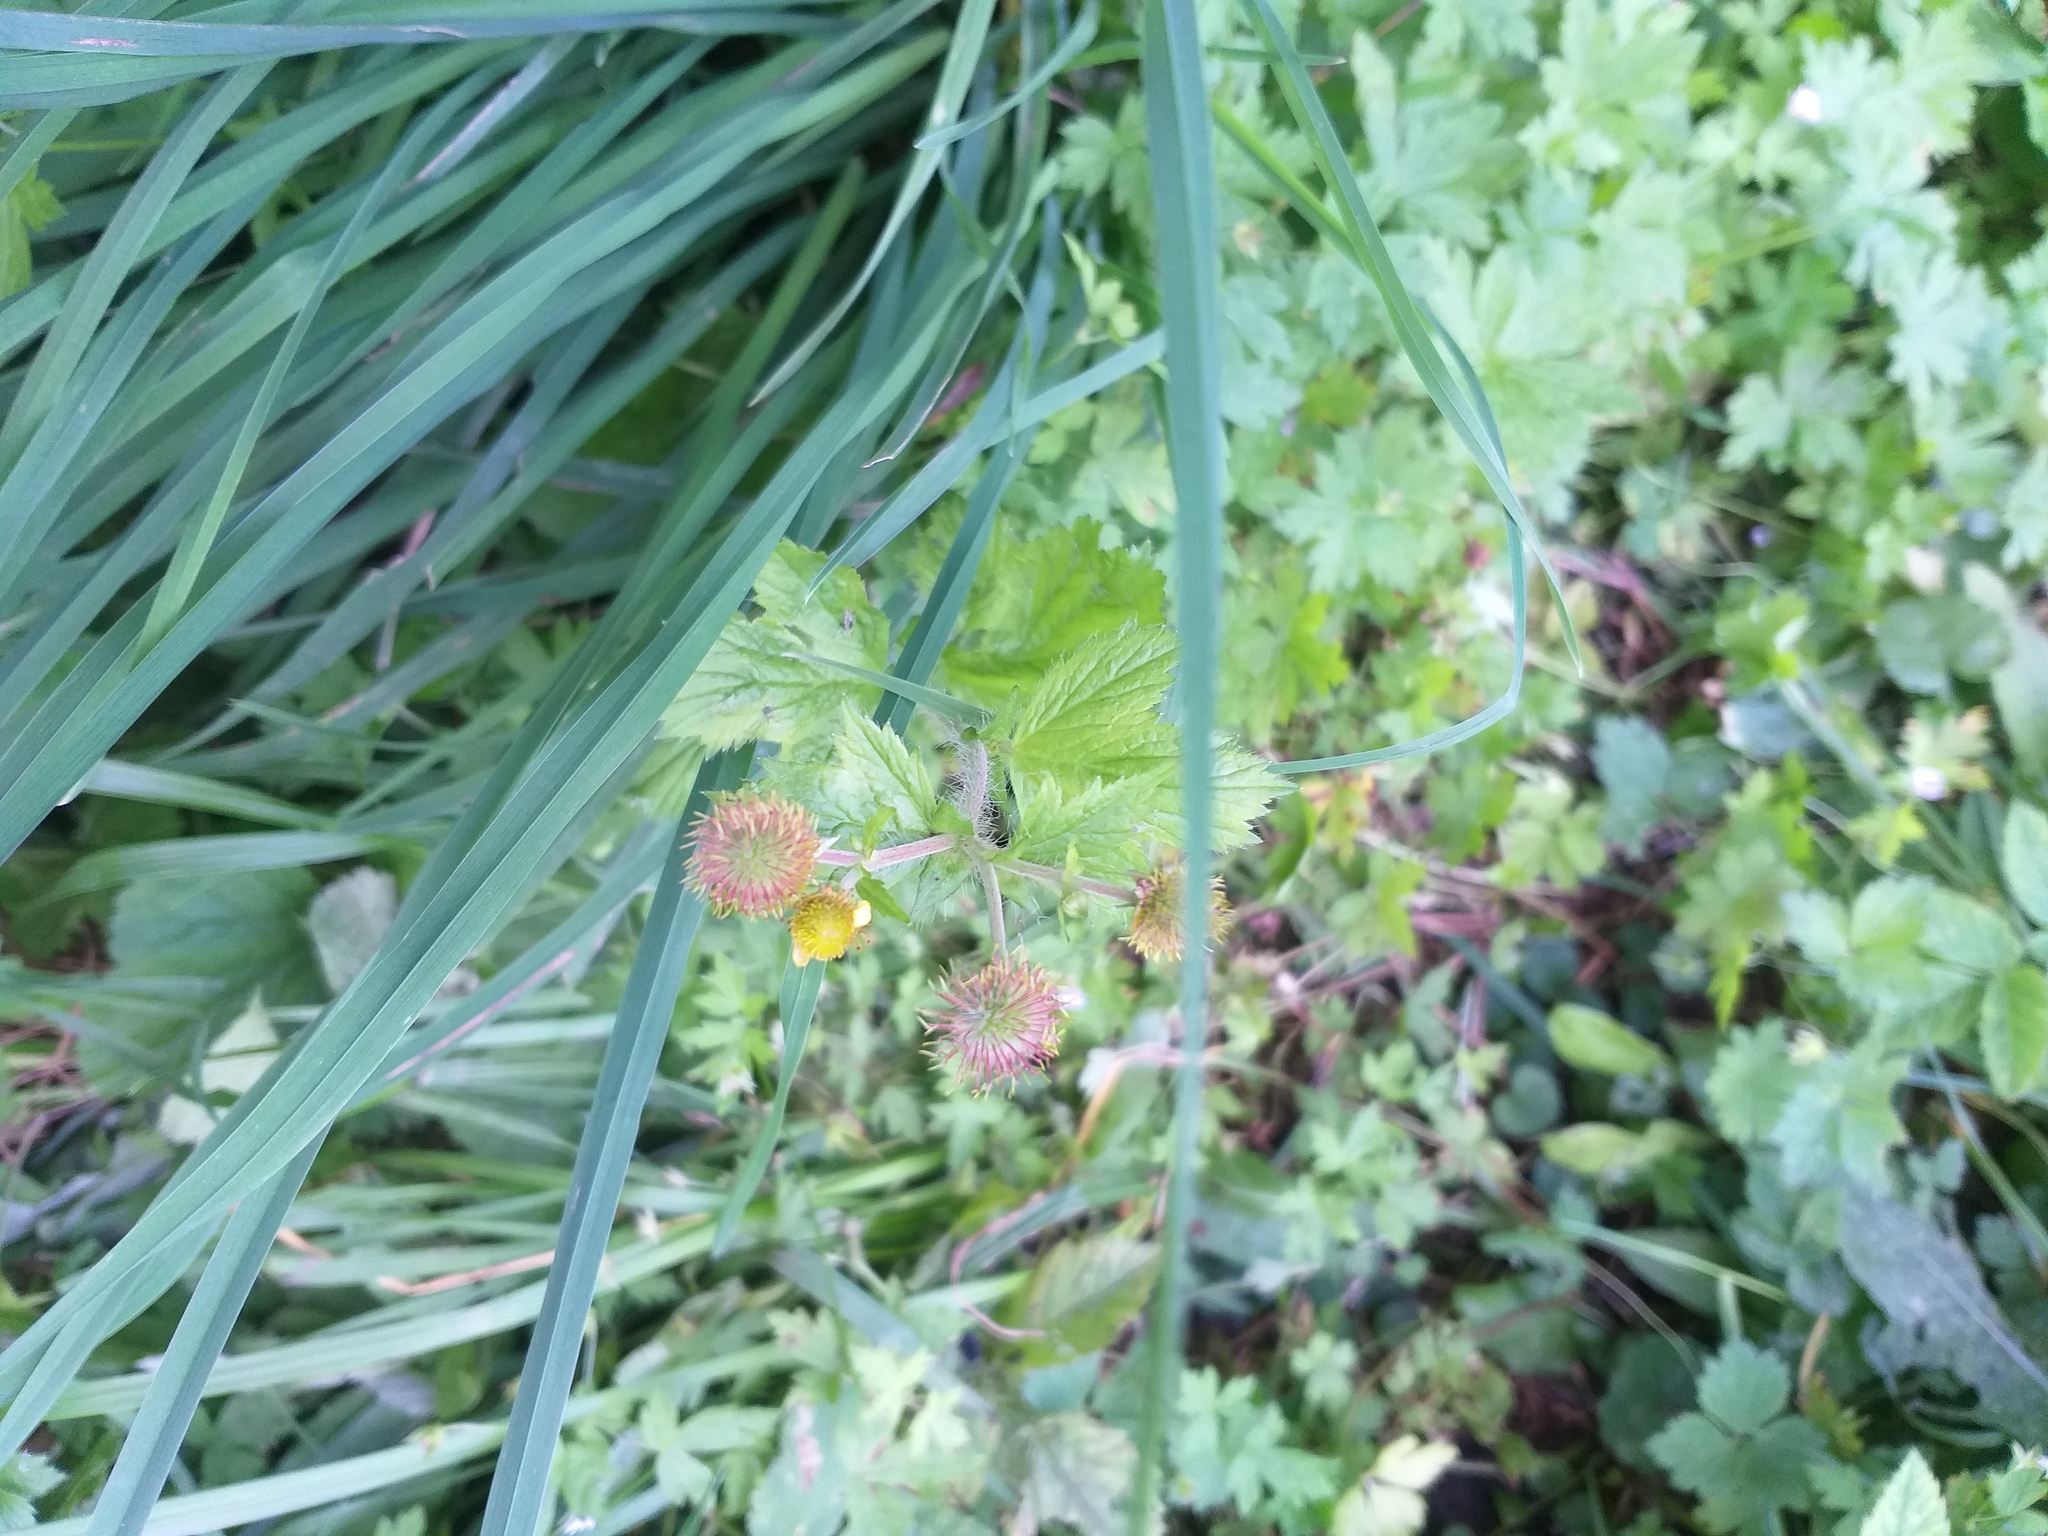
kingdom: Plantae
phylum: Tracheophyta
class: Magnoliopsida
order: Rosales
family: Rosaceae
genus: Geum
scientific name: Geum macrophyllum
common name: Large-leaved avens
